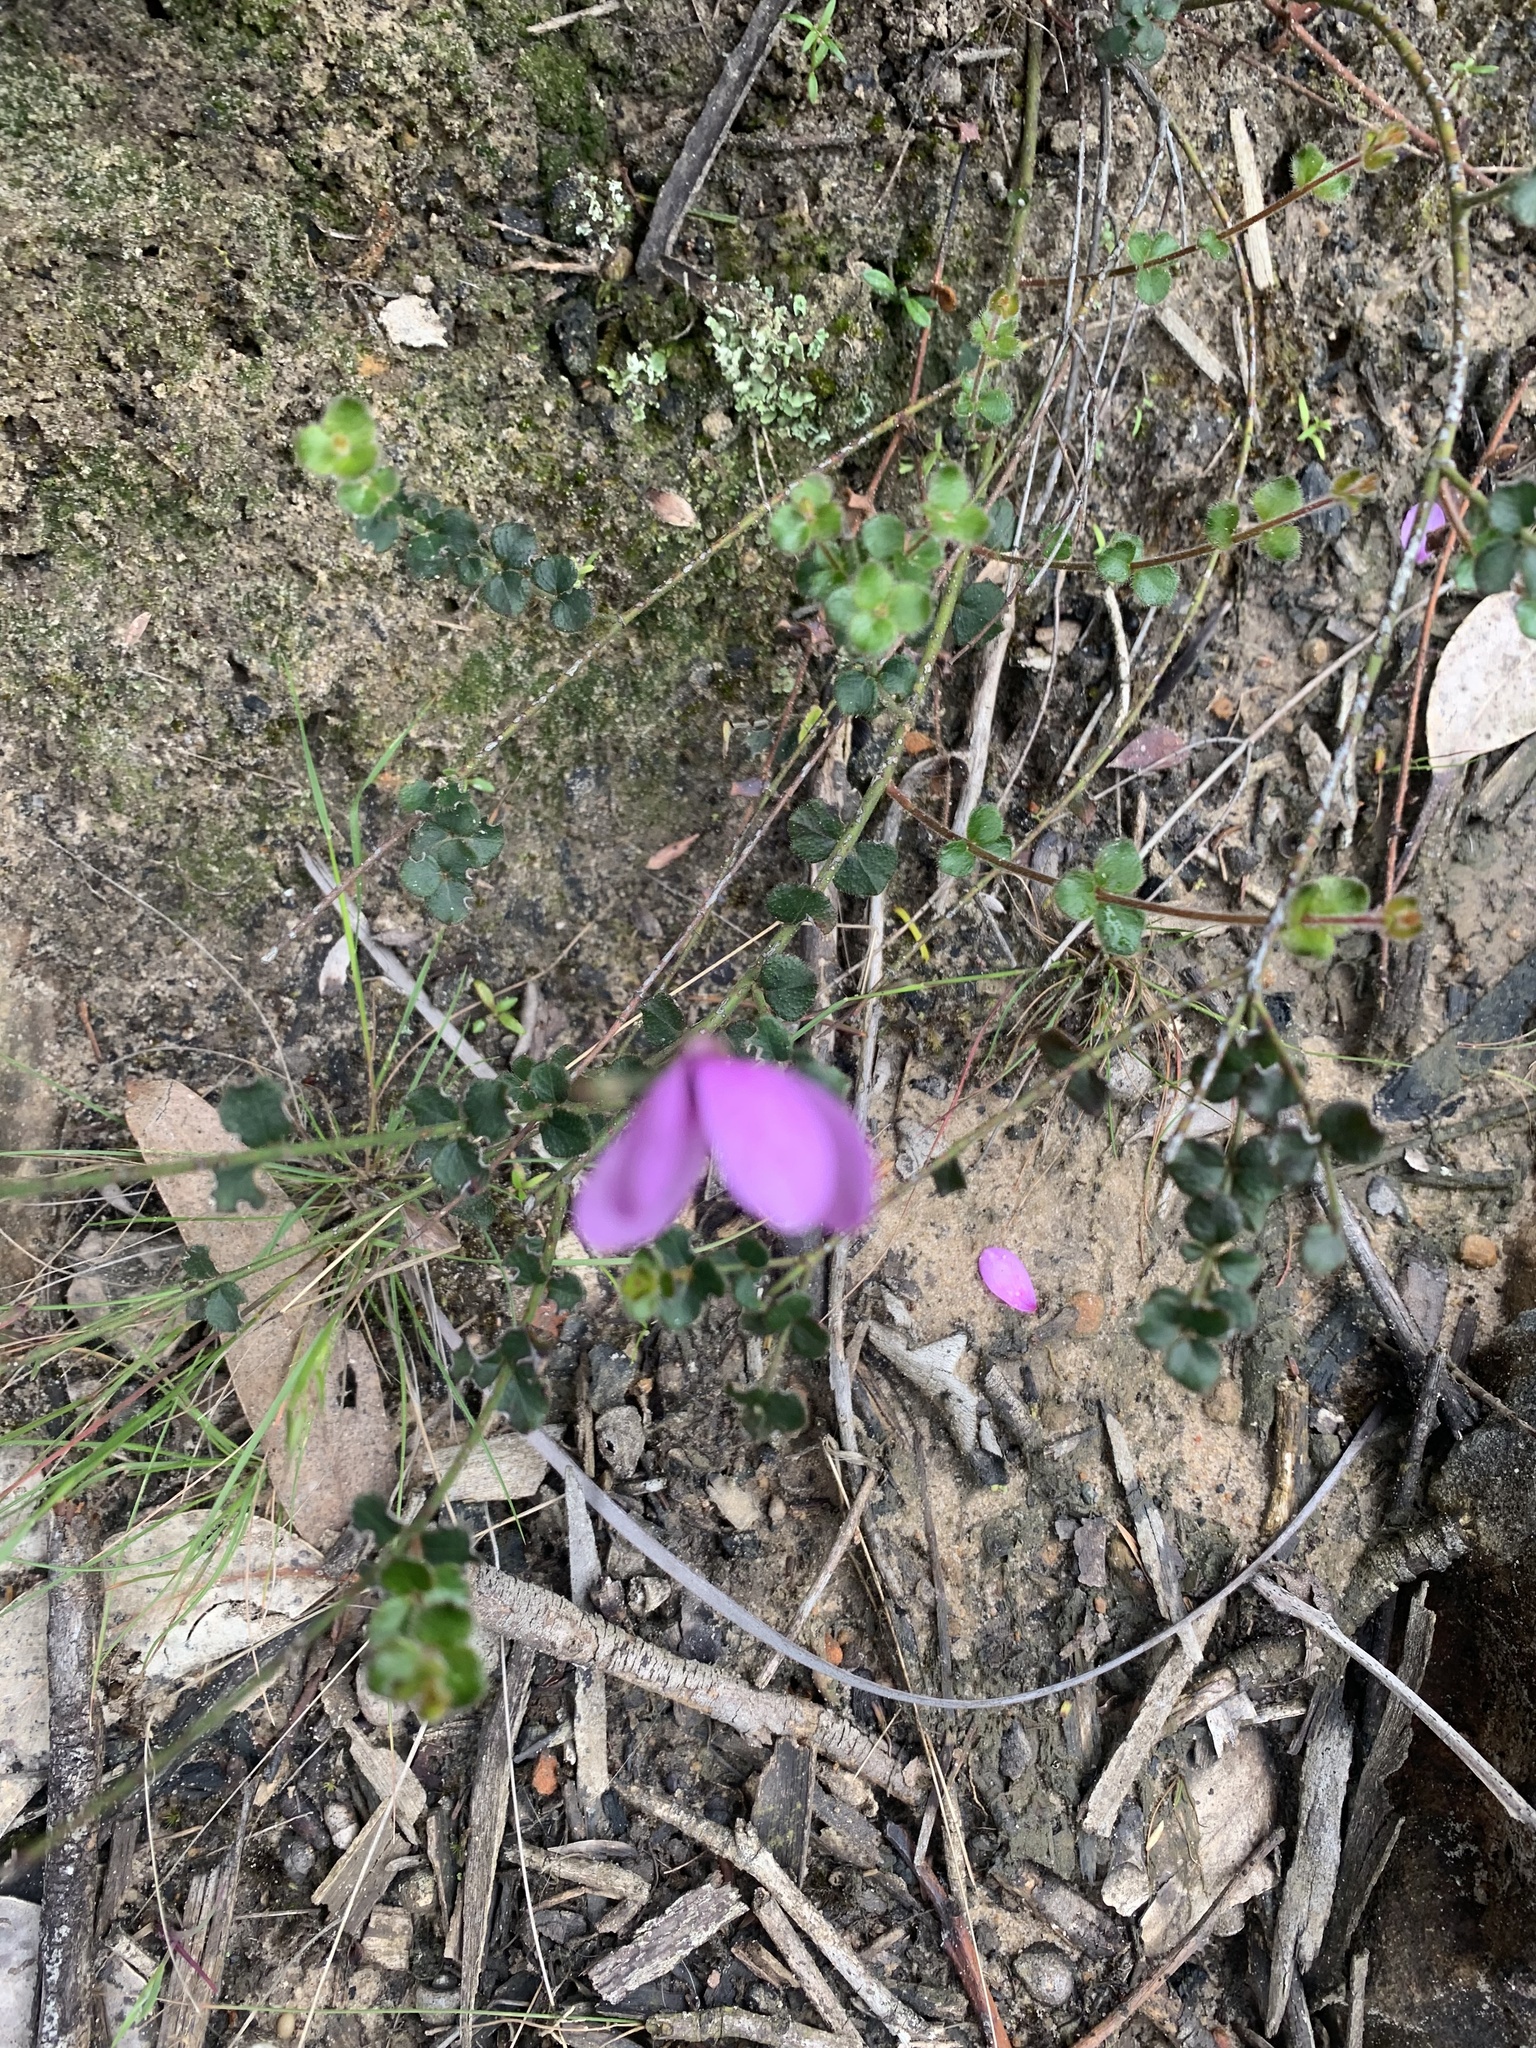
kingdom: Plantae
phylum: Tracheophyta
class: Magnoliopsida
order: Oxalidales
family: Elaeocarpaceae
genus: Tetratheca
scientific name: Tetratheca ciliata
